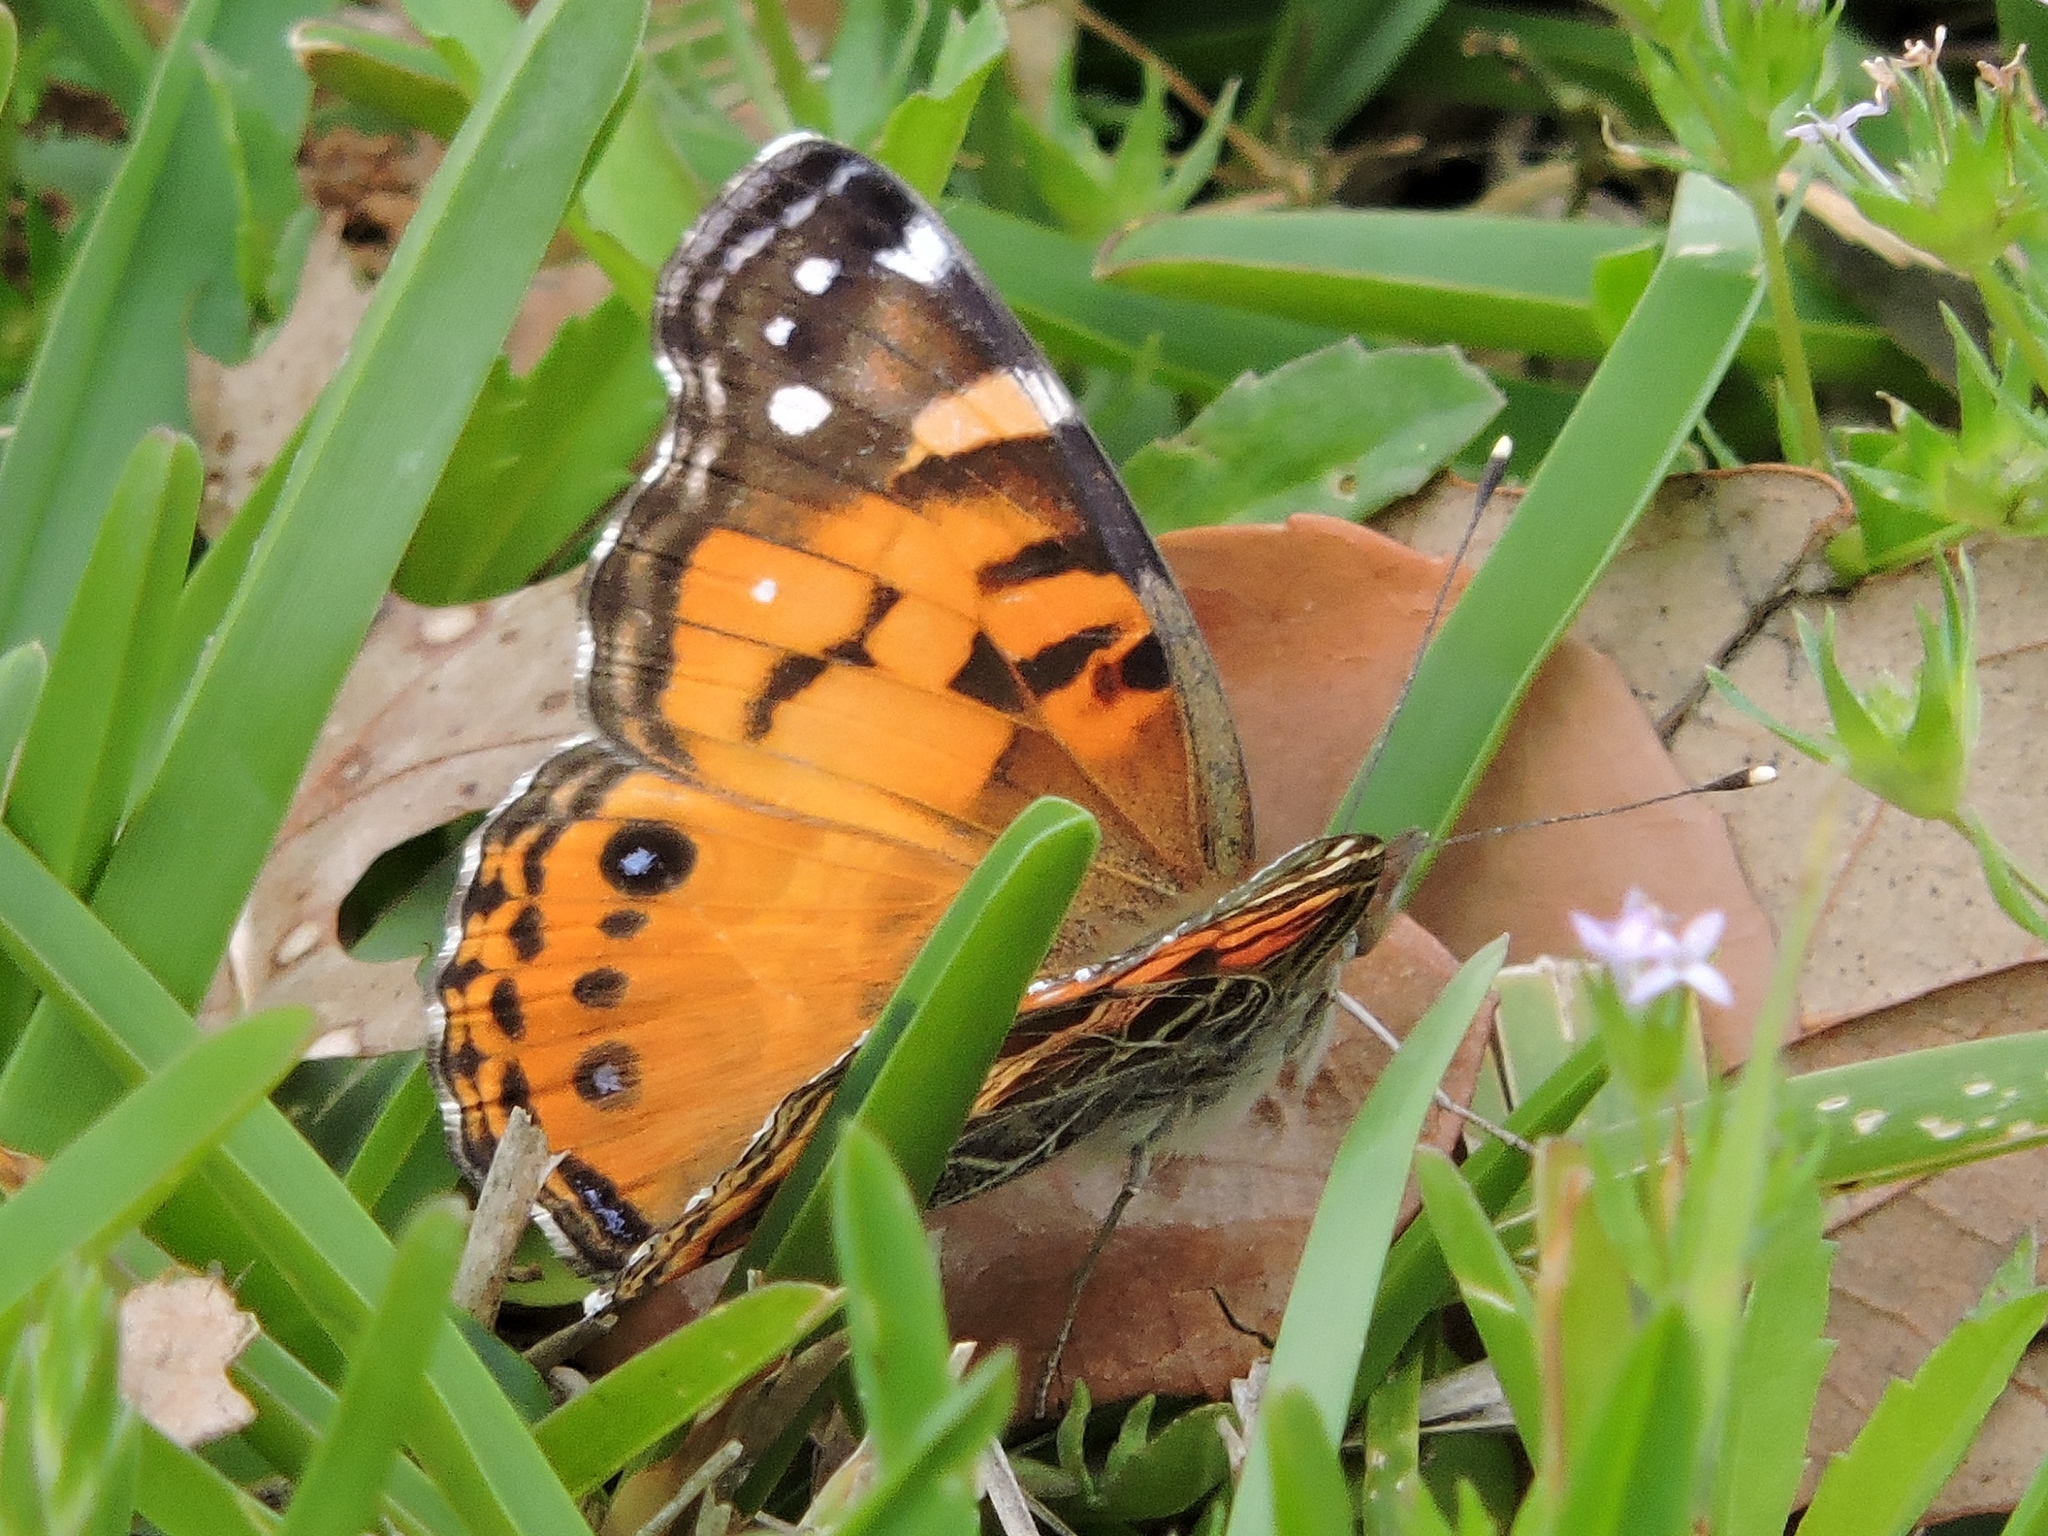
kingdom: Animalia
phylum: Arthropoda
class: Insecta
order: Lepidoptera
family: Nymphalidae
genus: Vanessa
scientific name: Vanessa virginiensis
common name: American lady
